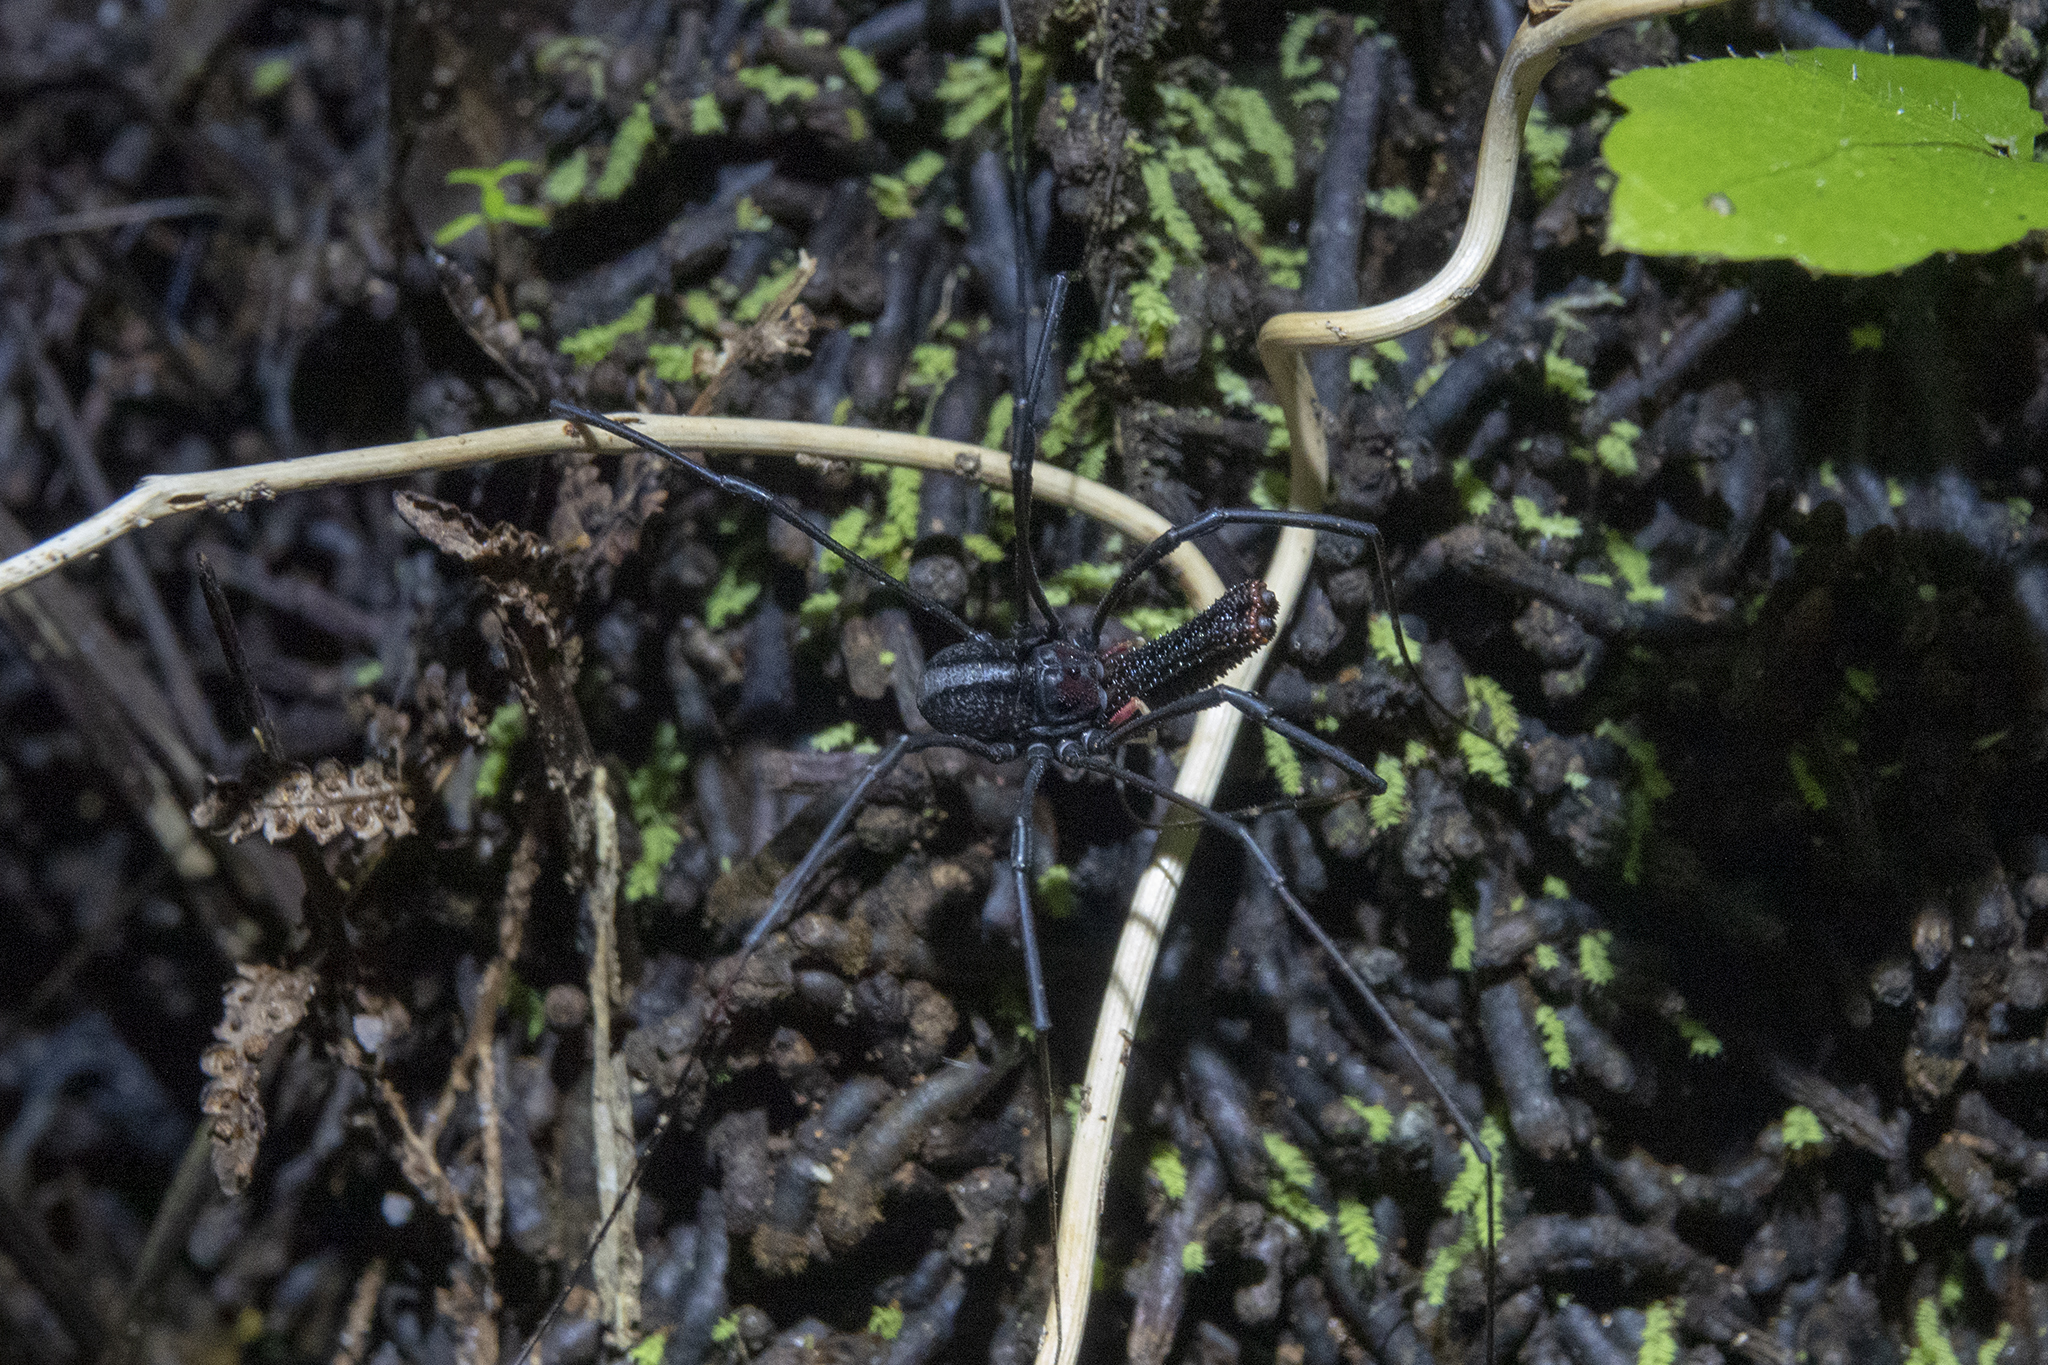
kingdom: Animalia
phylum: Arthropoda
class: Arachnida
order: Opiliones
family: Neopilionidae
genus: Forsteropsalis
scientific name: Forsteropsalis inconstans
